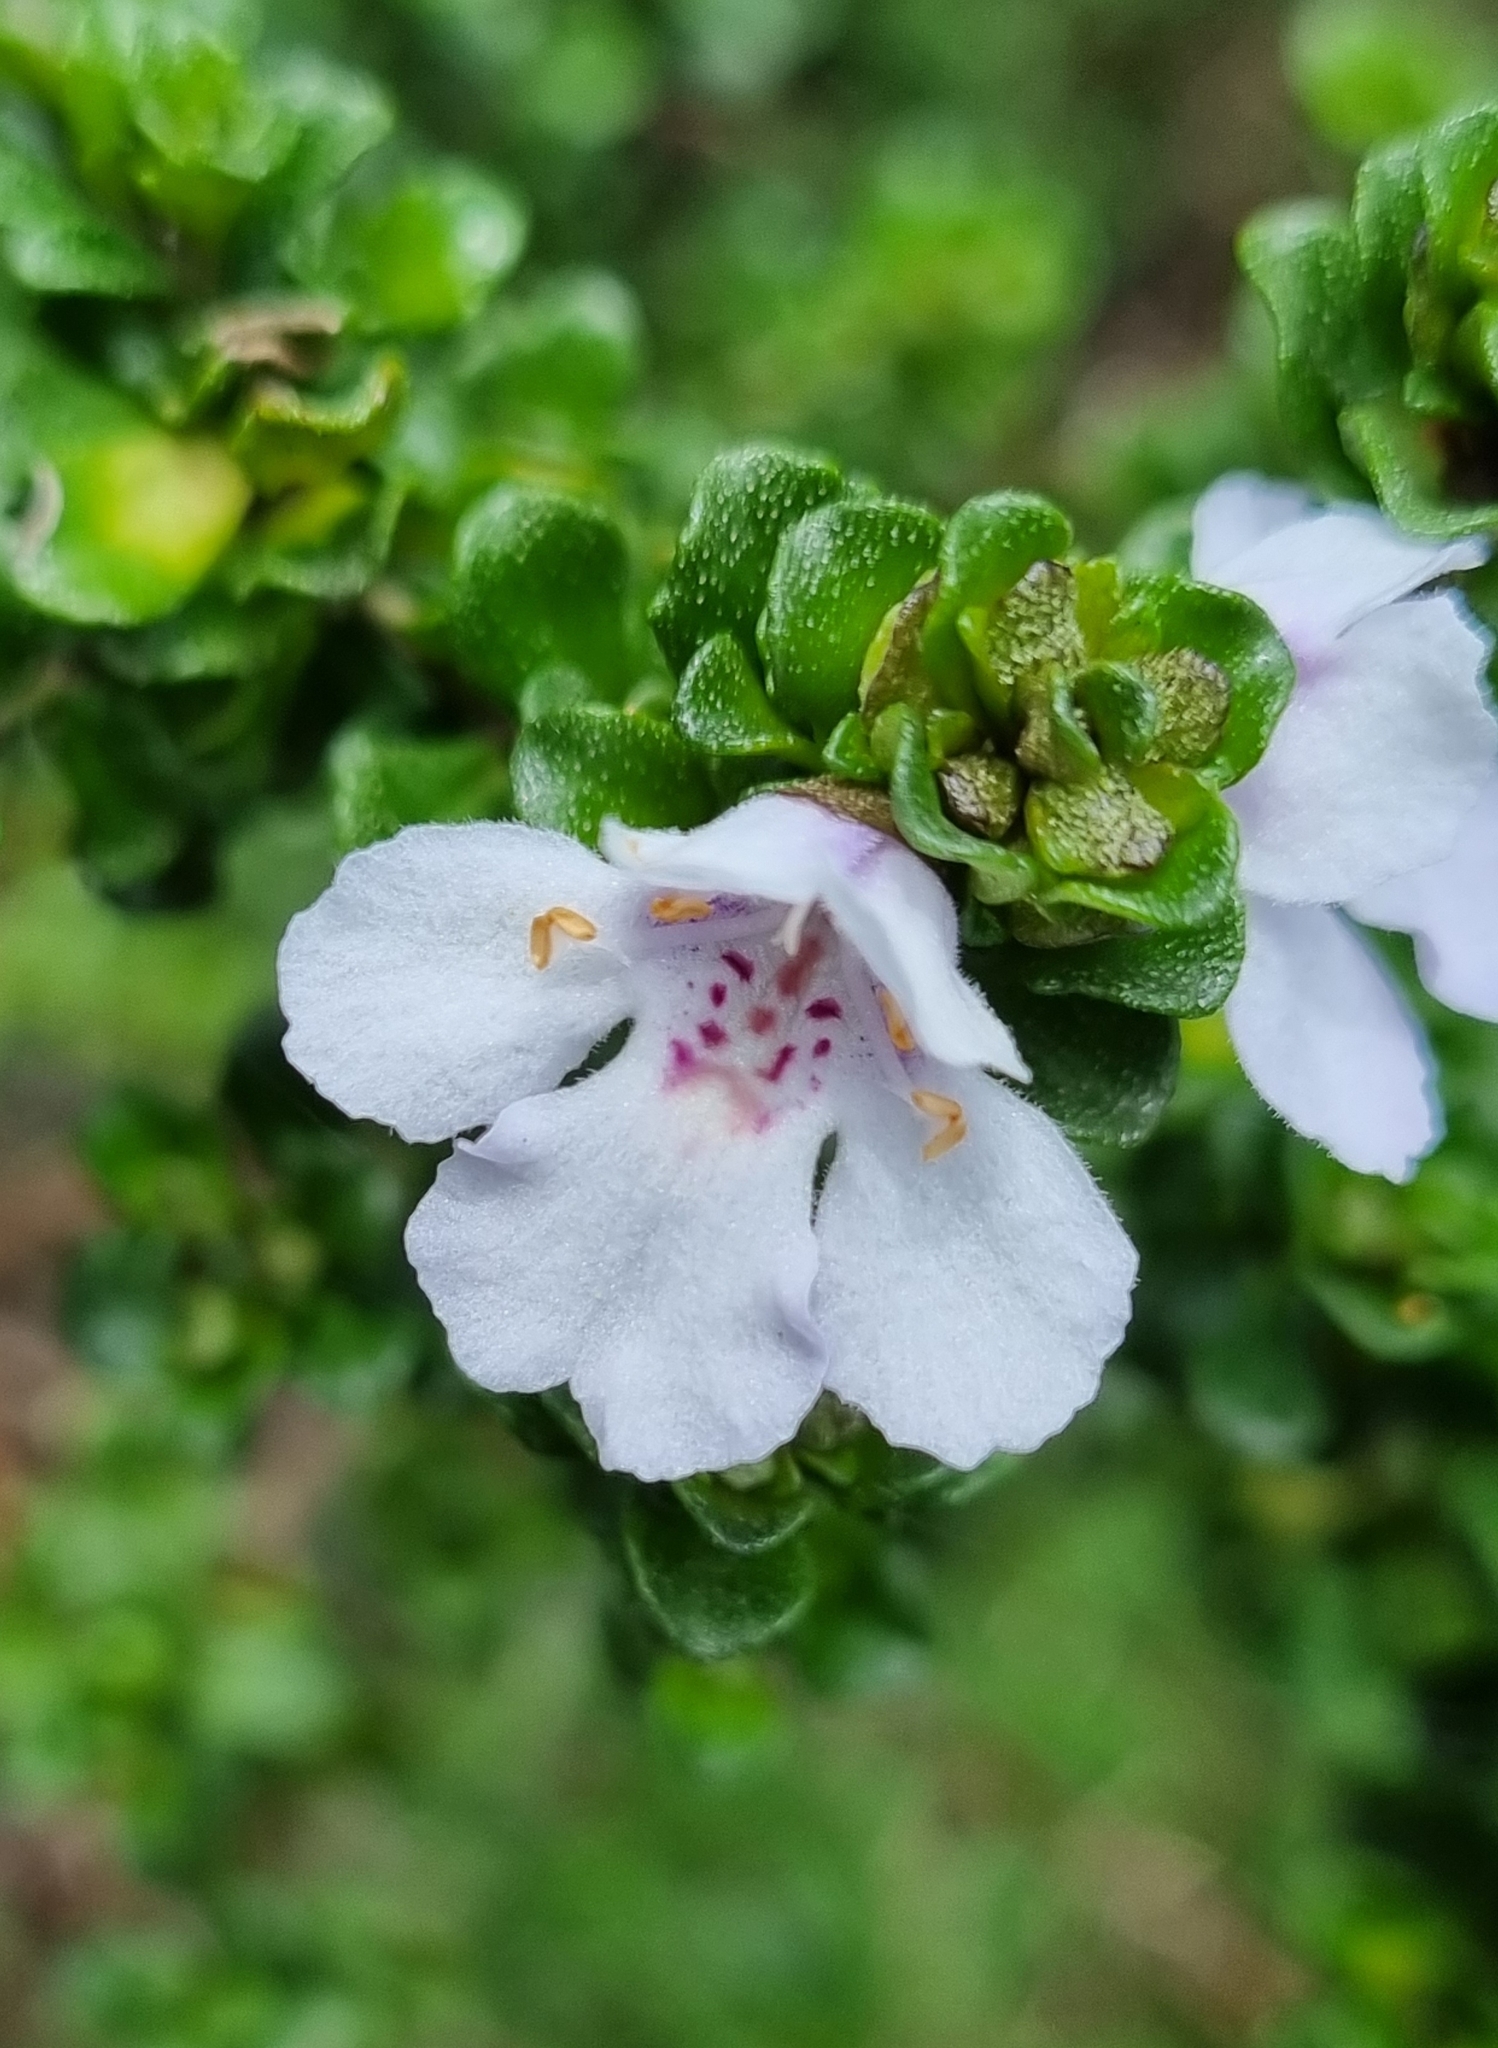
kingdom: Plantae
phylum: Tracheophyta
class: Magnoliopsida
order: Lamiales
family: Lamiaceae
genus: Prostanthera
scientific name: Prostanthera cuneata
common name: Alpine mintbush
